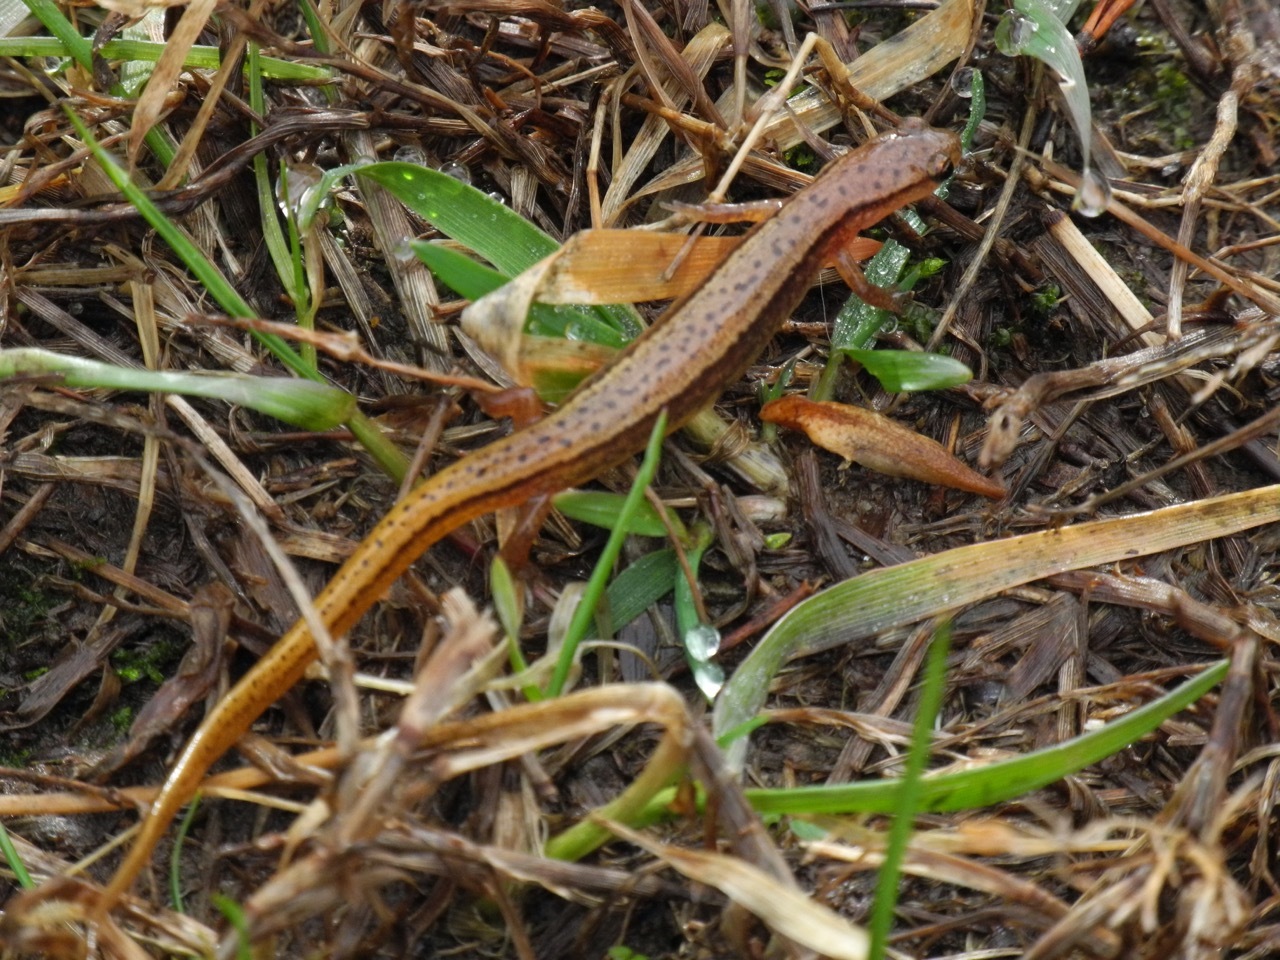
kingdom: Animalia
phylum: Chordata
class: Amphibia
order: Caudata
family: Plethodontidae
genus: Eurycea
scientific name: Eurycea wilderae
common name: Blue ridge two-lined salamander
